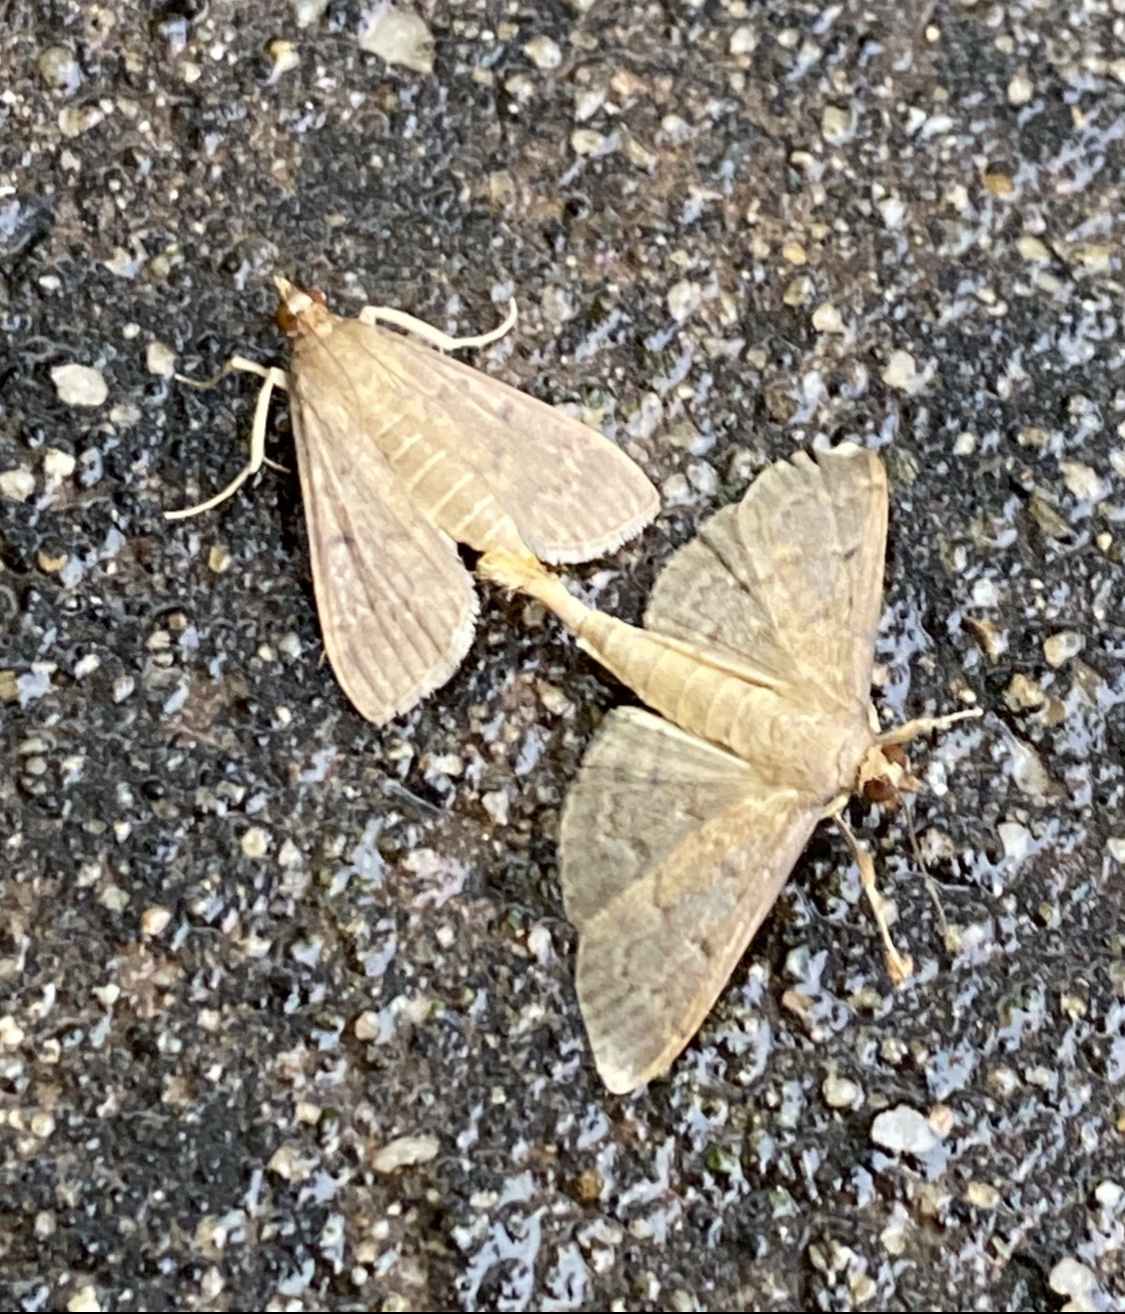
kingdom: Animalia
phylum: Arthropoda
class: Insecta
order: Lepidoptera
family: Crambidae
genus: Herpetogramma
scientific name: Herpetogramma licarsisalis
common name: Grass webworm
